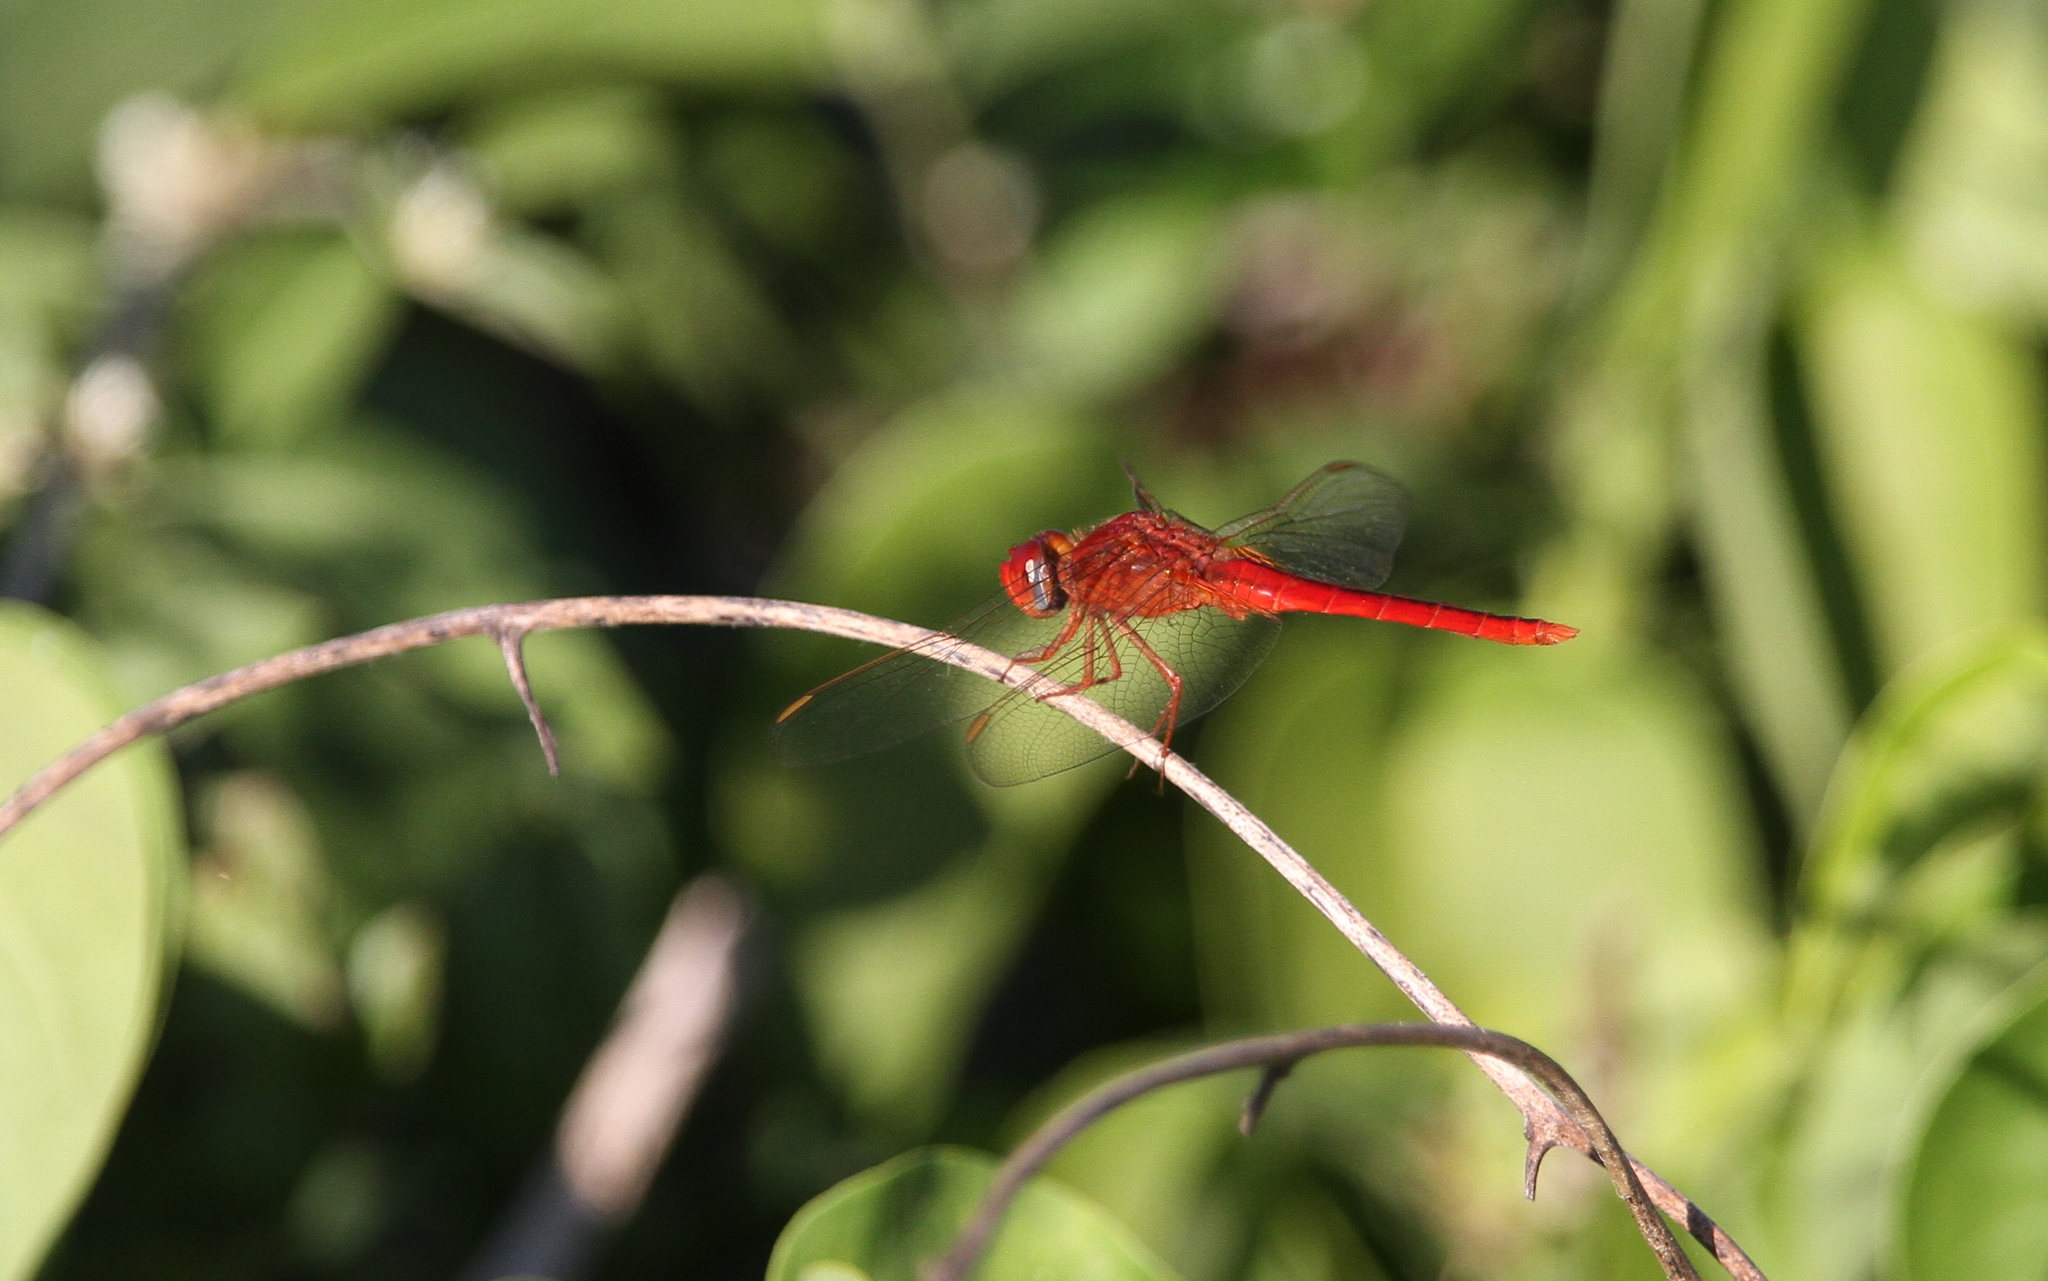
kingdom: Animalia
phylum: Arthropoda
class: Insecta
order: Odonata
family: Libellulidae
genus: Crocothemis
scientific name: Crocothemis servilia
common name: Scarlet skimmer
